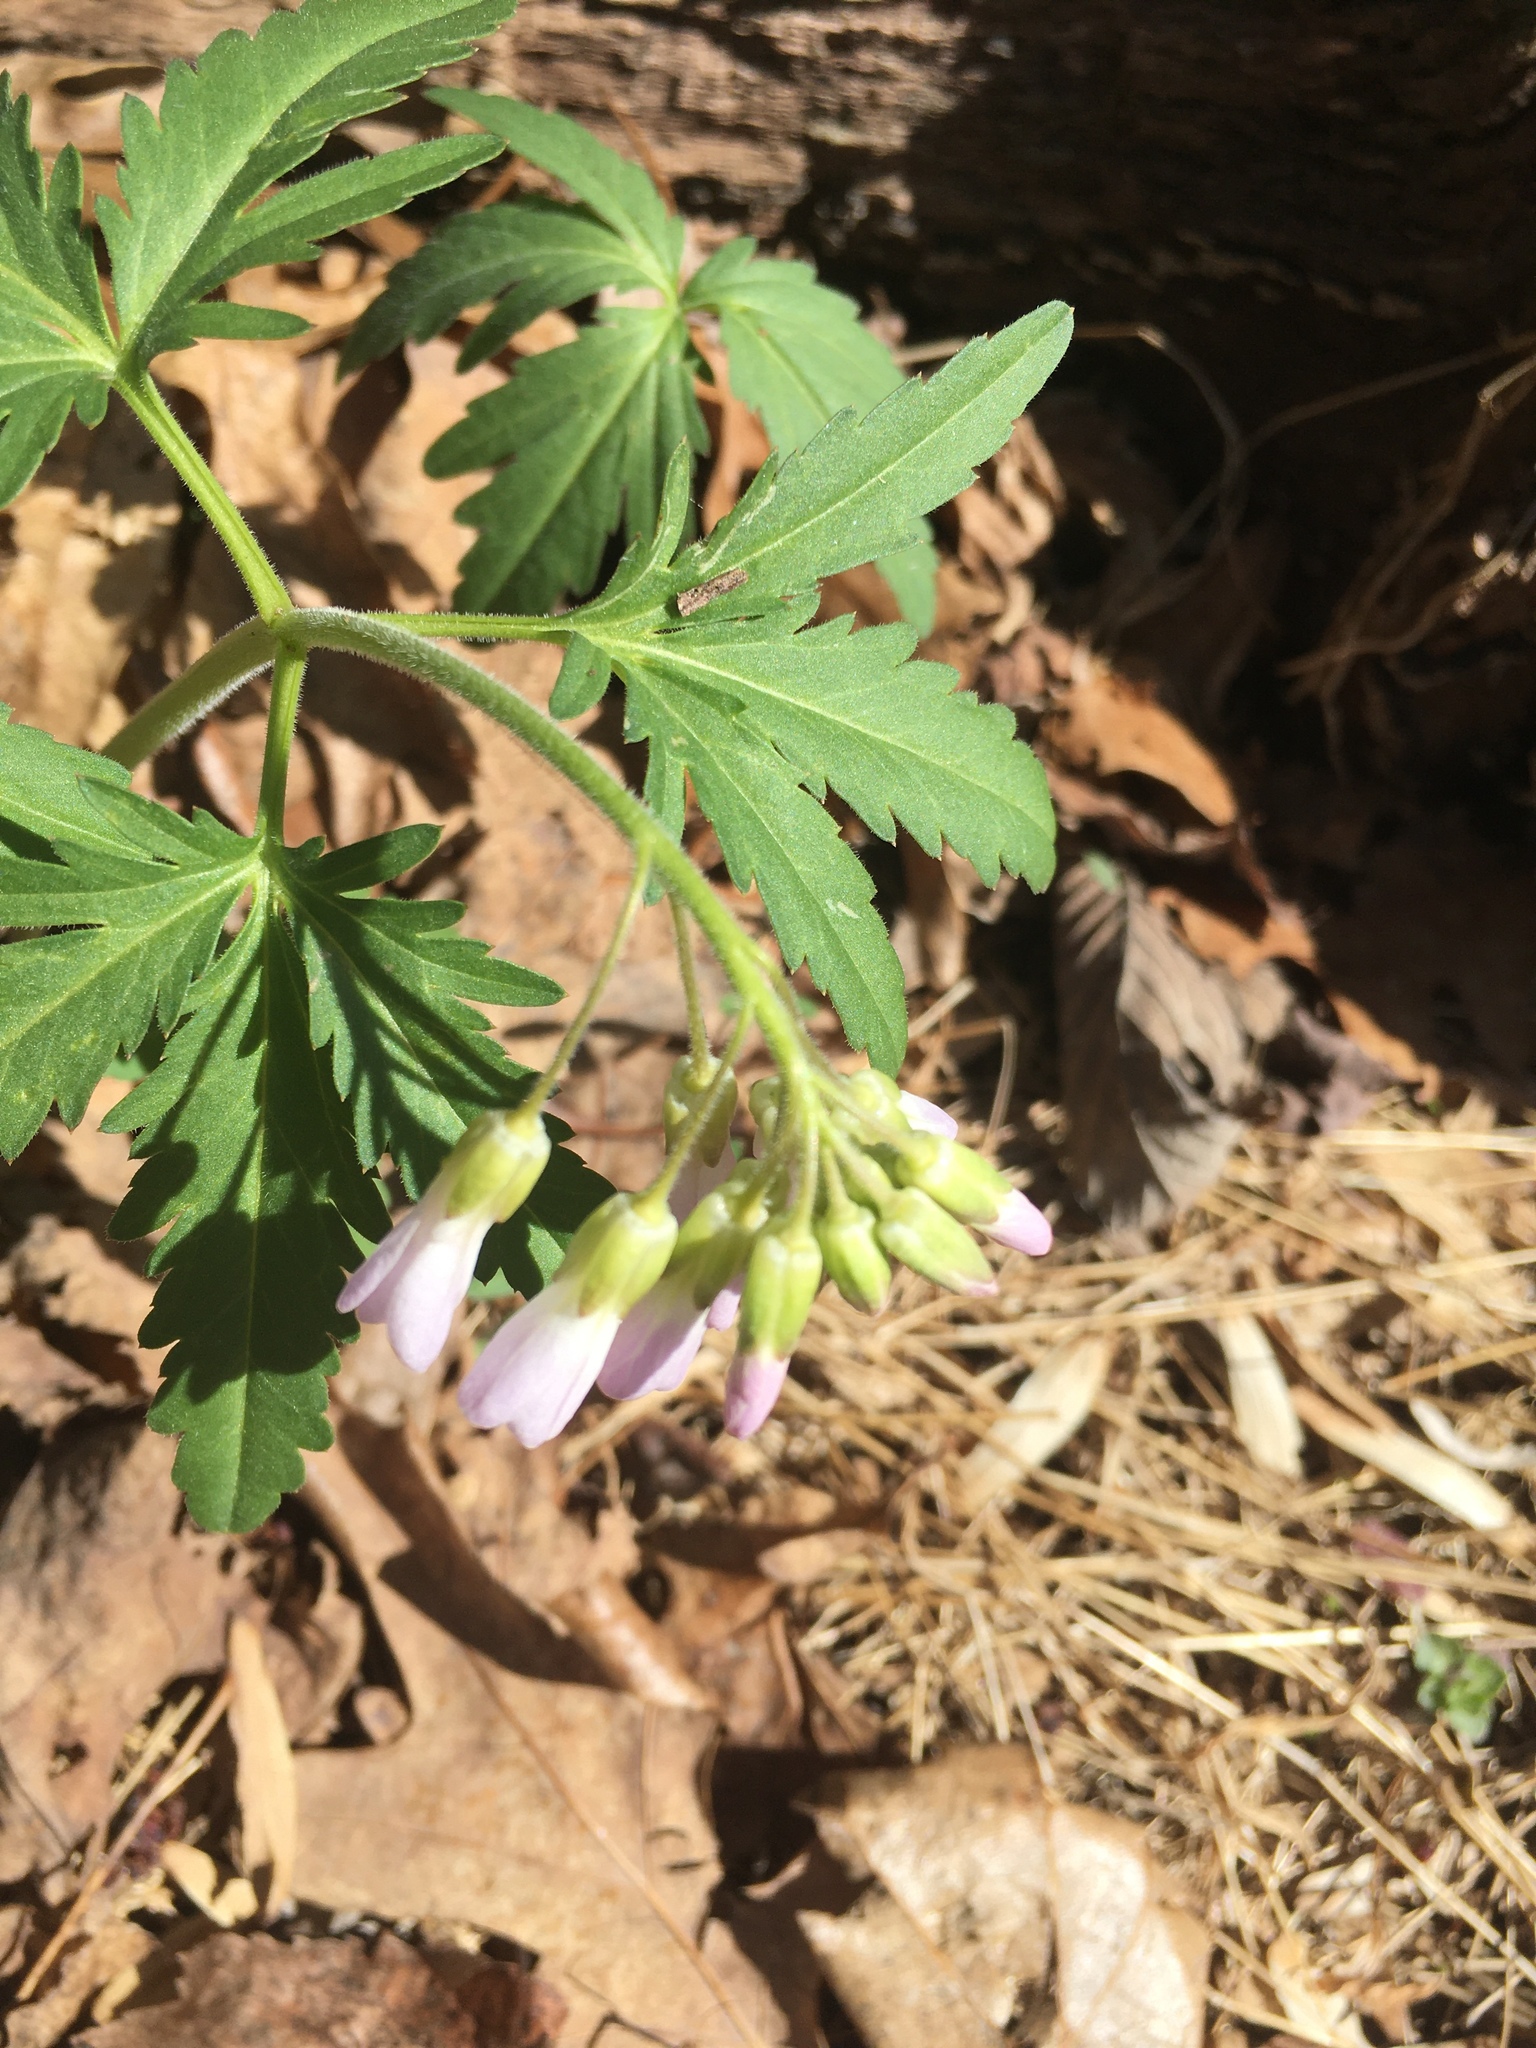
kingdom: Plantae
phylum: Tracheophyta
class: Magnoliopsida
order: Brassicales
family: Brassicaceae
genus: Cardamine
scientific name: Cardamine concatenata
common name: Cut-leaf toothcup
